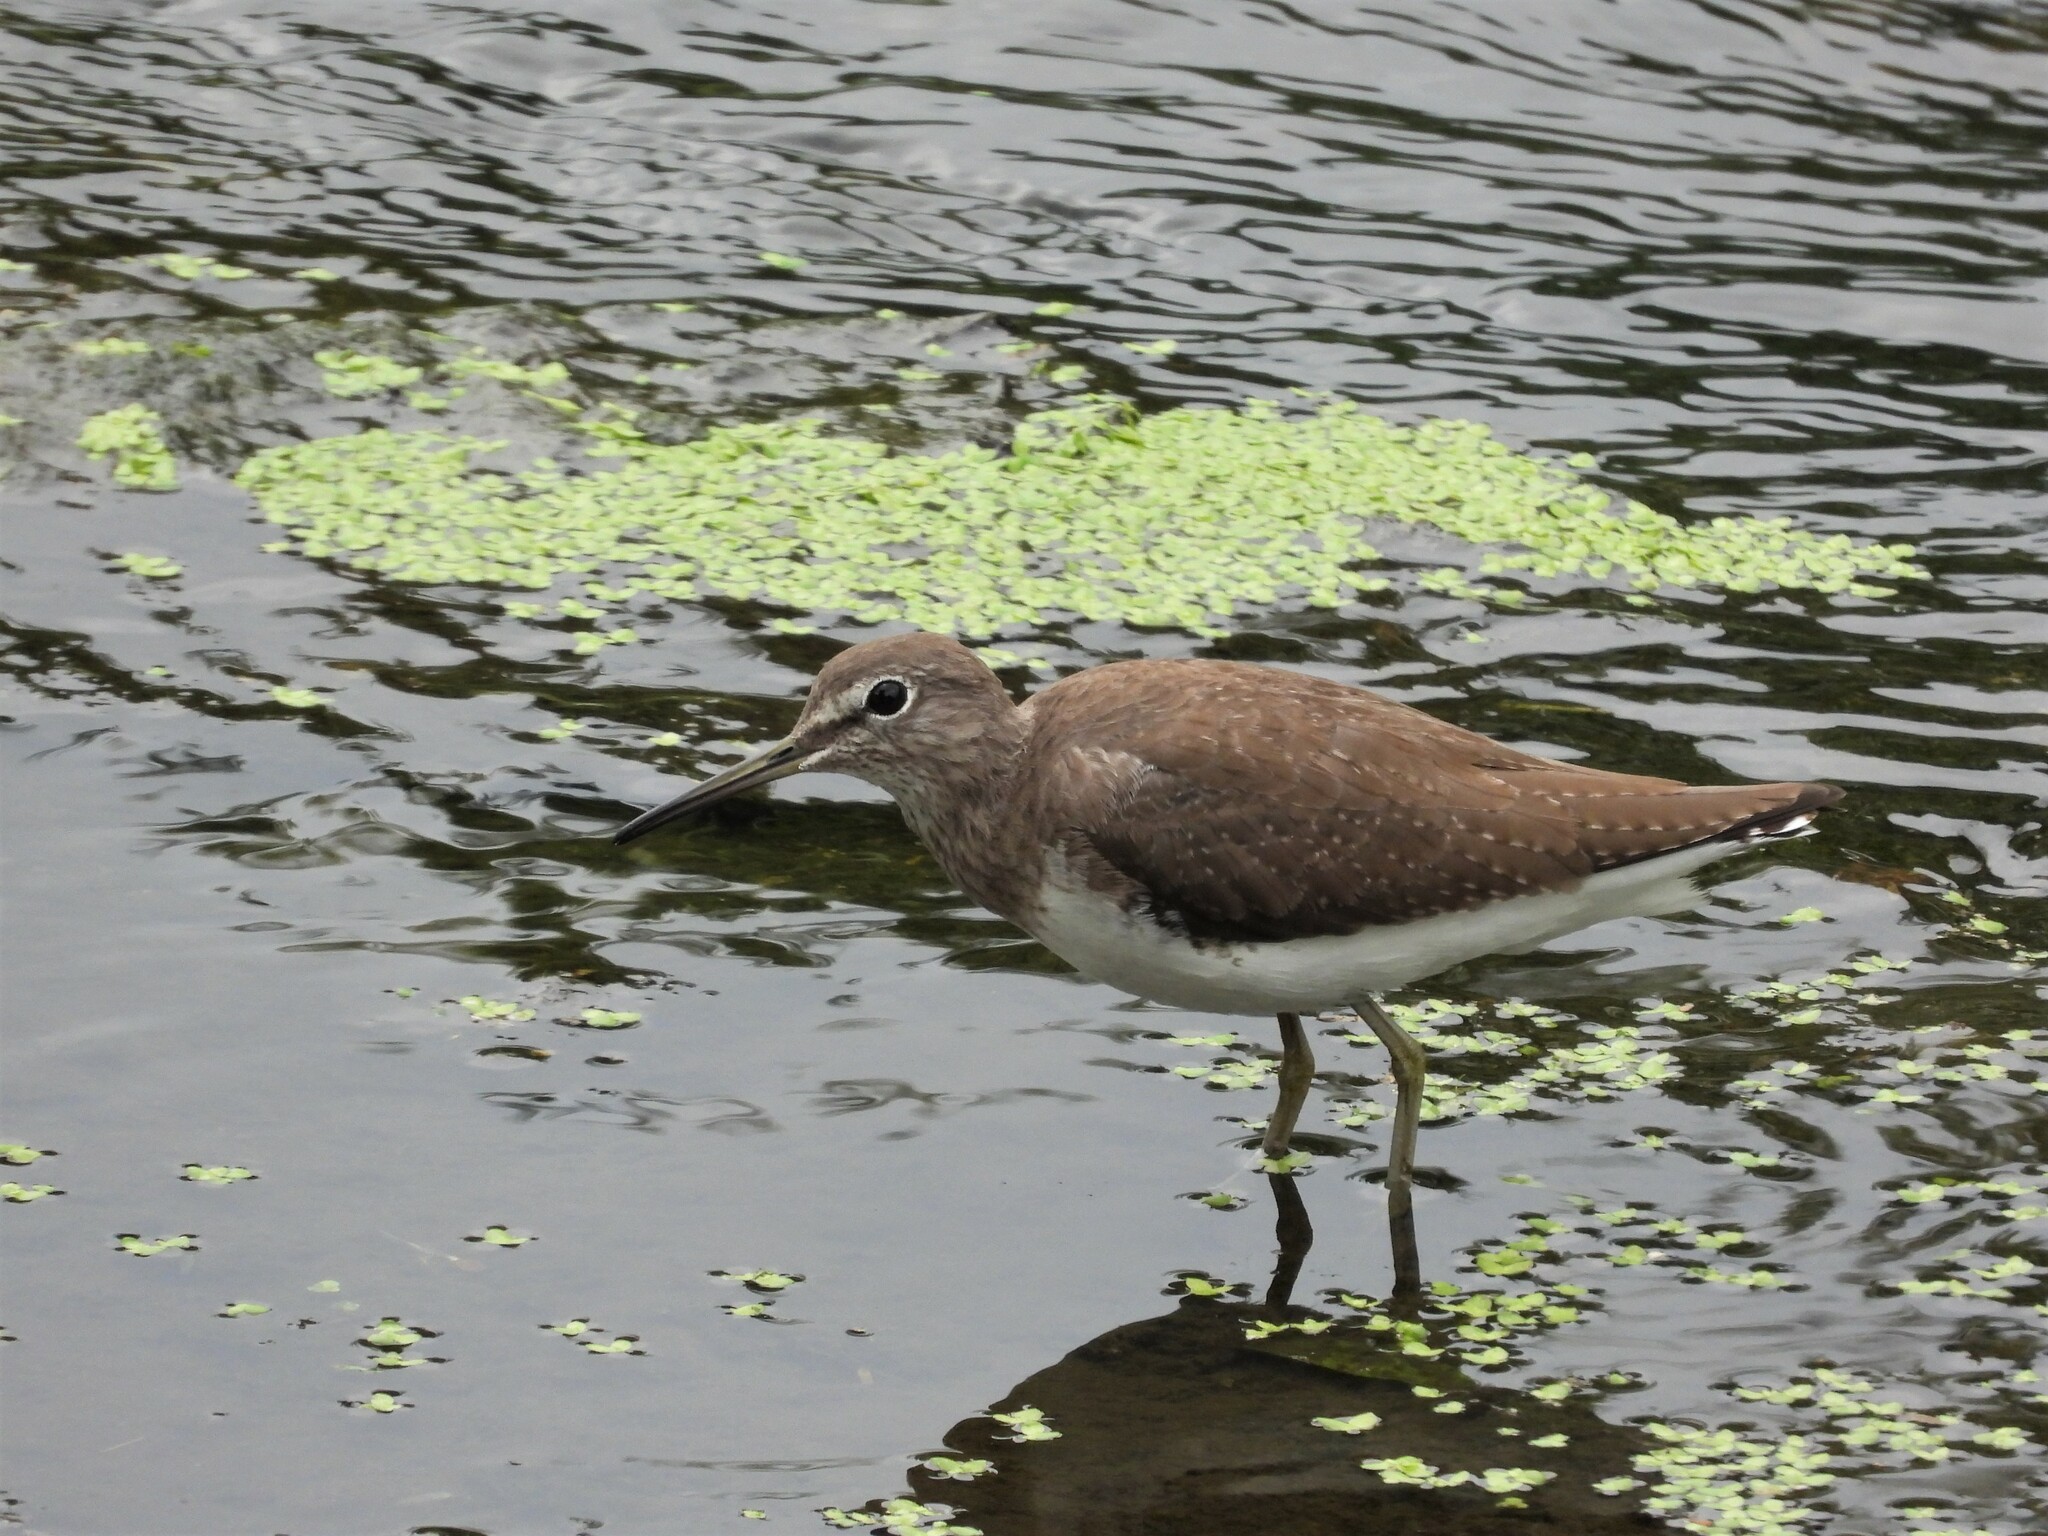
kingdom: Animalia
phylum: Chordata
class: Aves
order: Charadriiformes
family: Scolopacidae
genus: Tringa
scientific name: Tringa ochropus
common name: Green sandpiper
